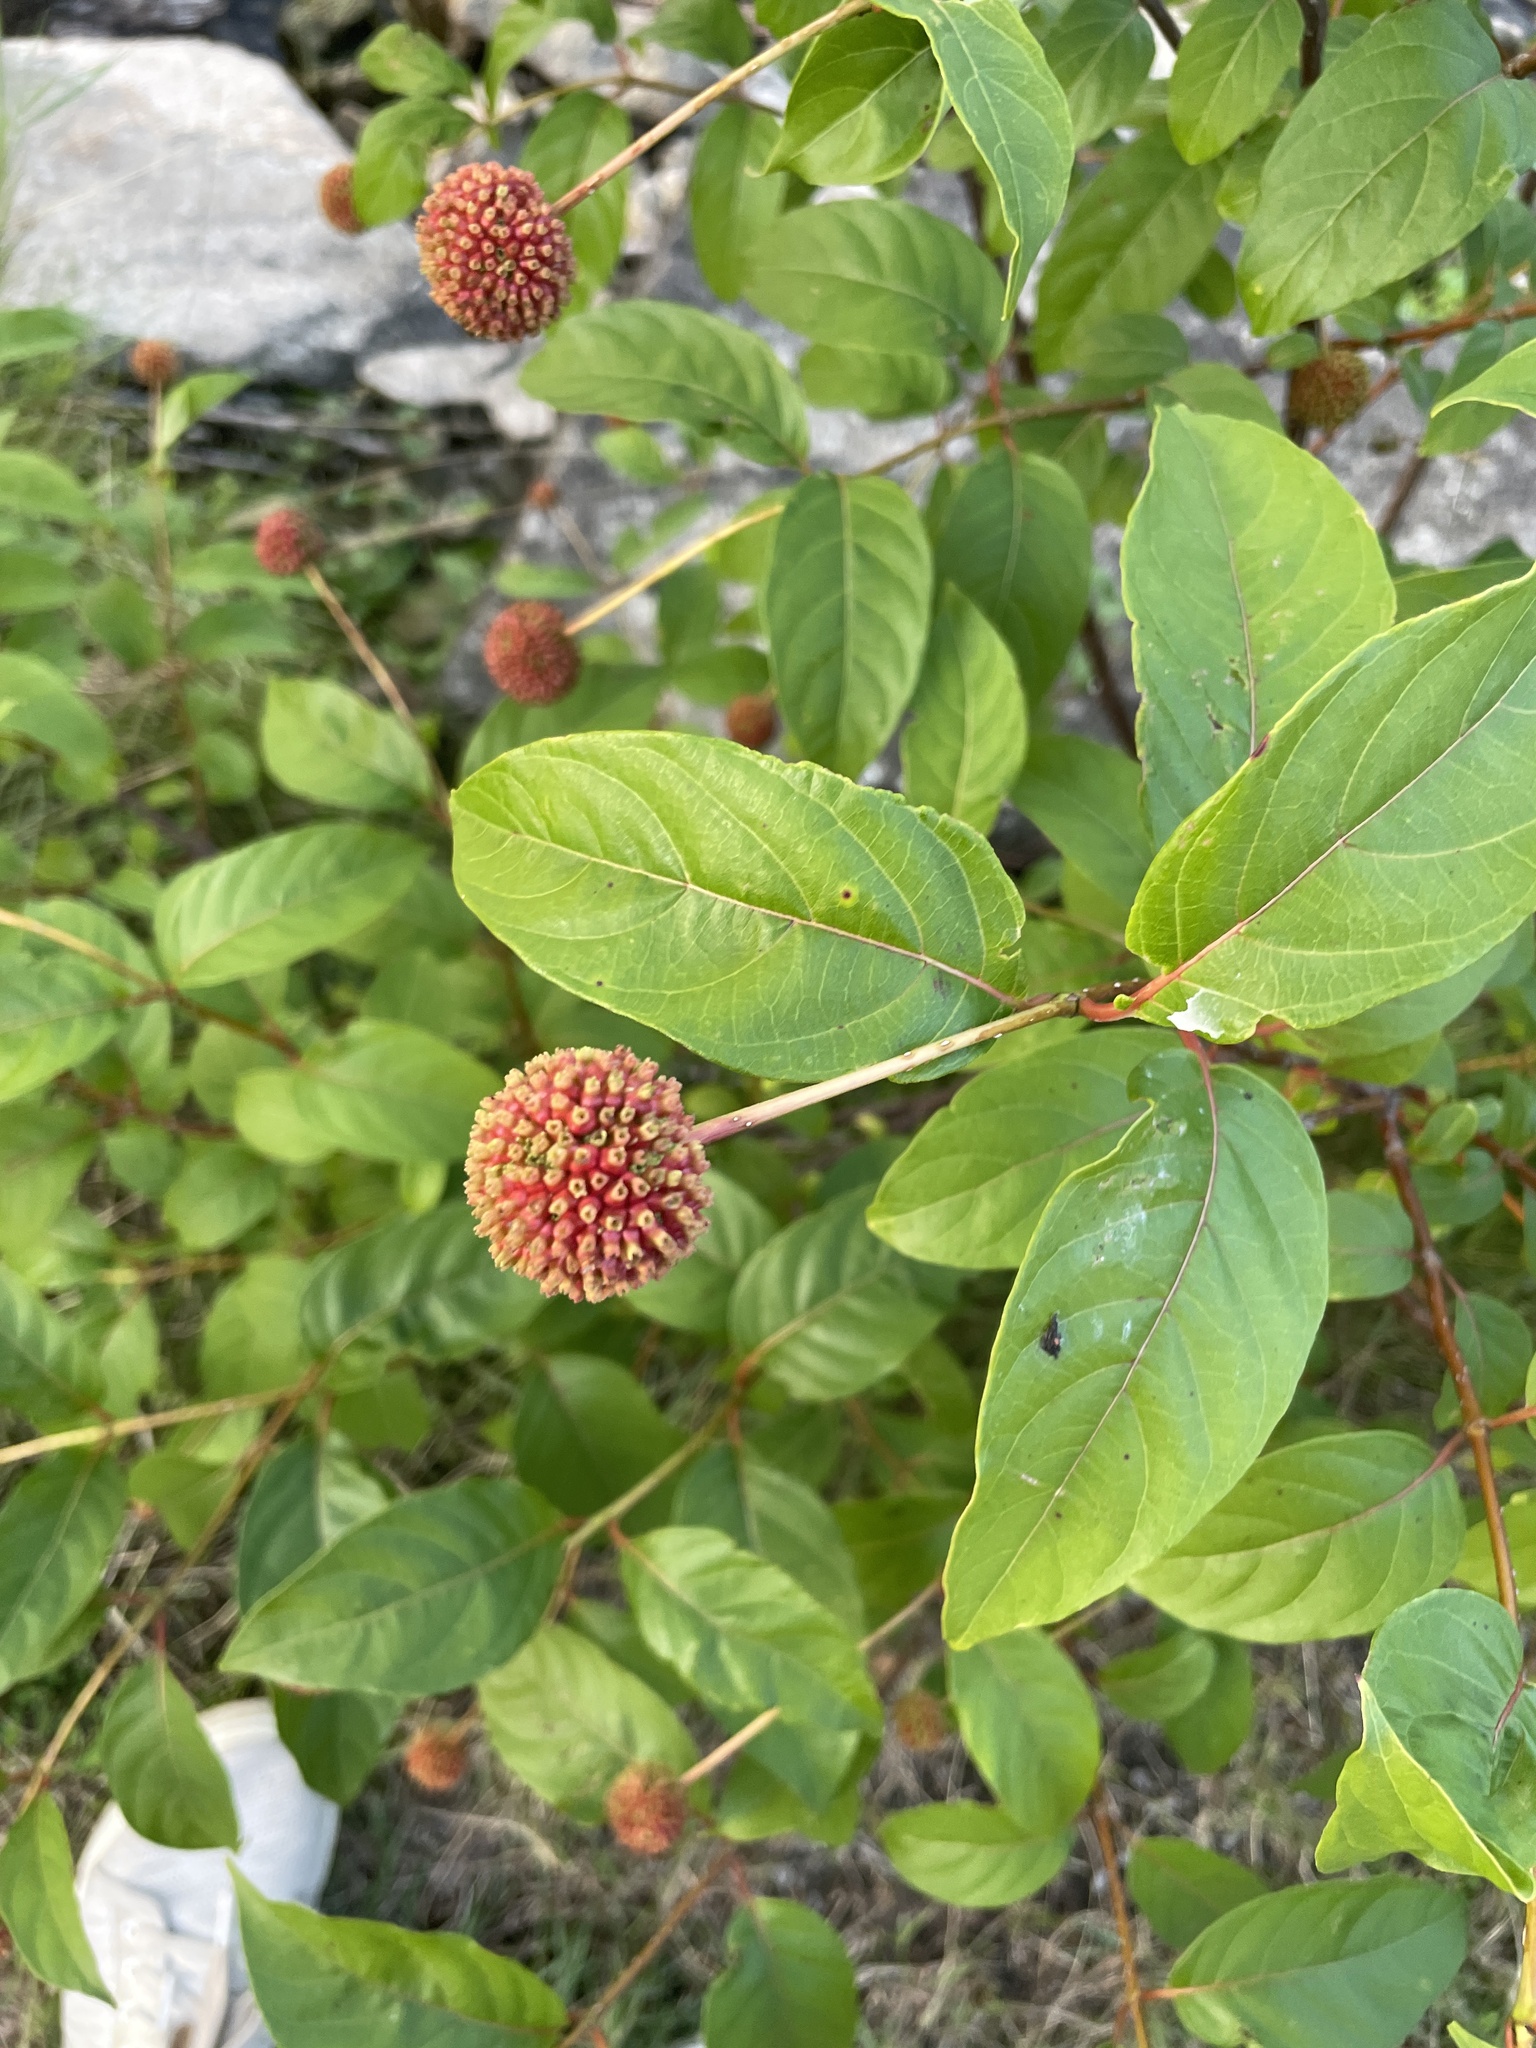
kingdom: Plantae
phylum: Tracheophyta
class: Magnoliopsida
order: Gentianales
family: Rubiaceae
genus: Cephalanthus
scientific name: Cephalanthus occidentalis
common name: Button-willow
